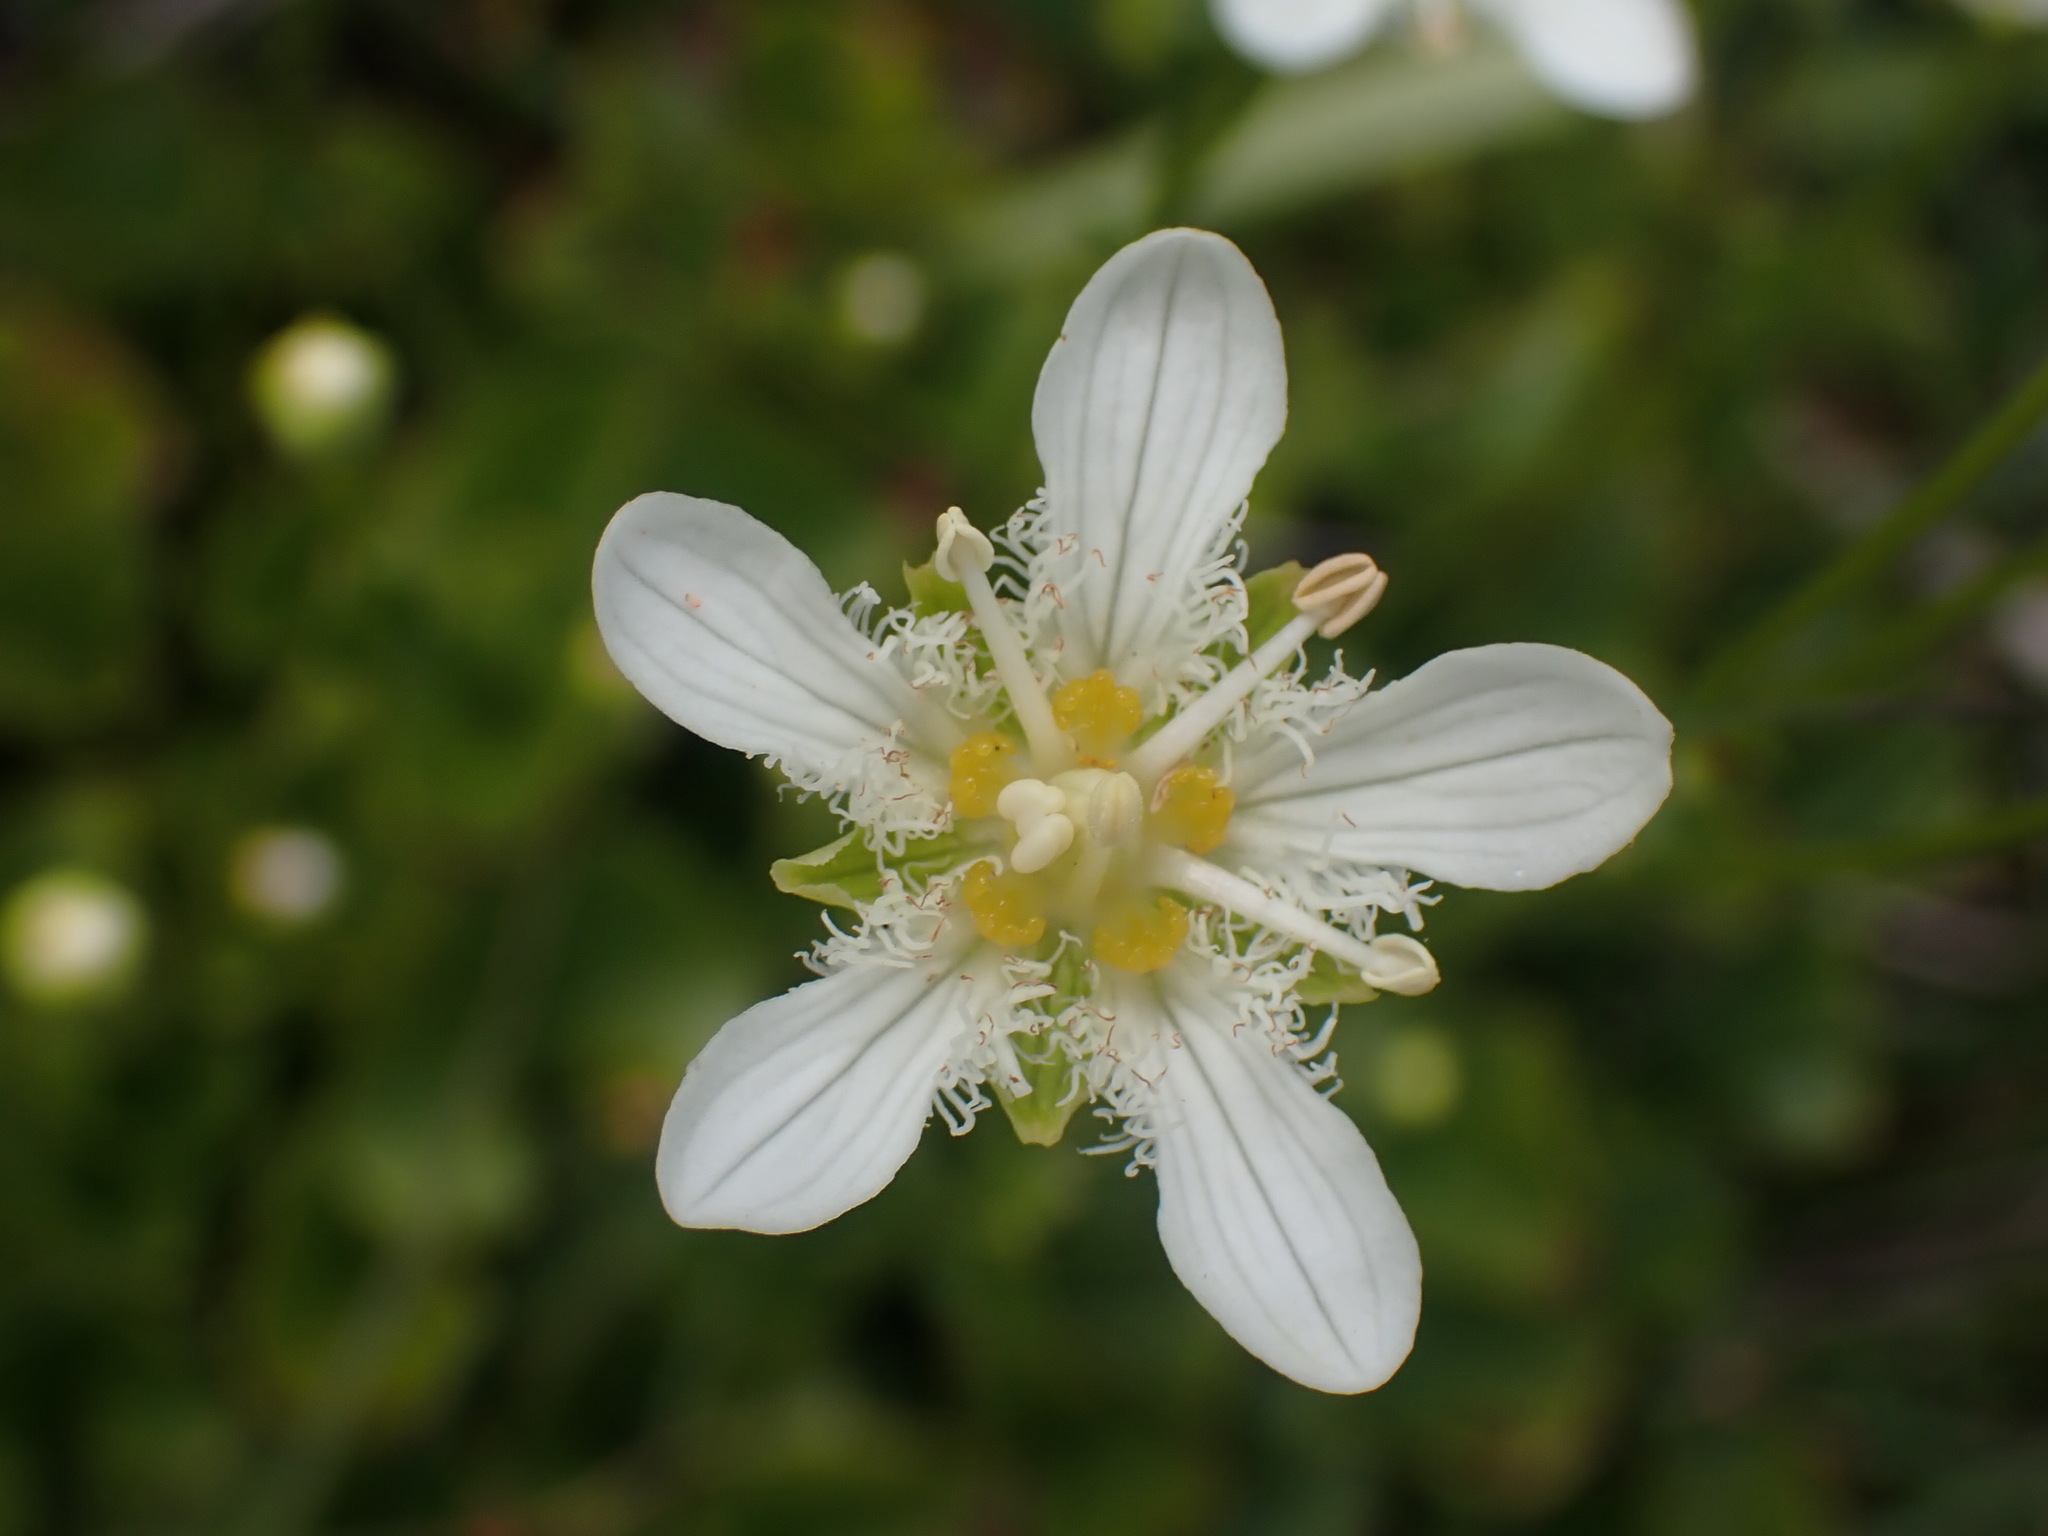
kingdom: Plantae
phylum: Tracheophyta
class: Magnoliopsida
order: Celastrales
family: Parnassiaceae
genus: Parnassia
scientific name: Parnassia fimbriata
